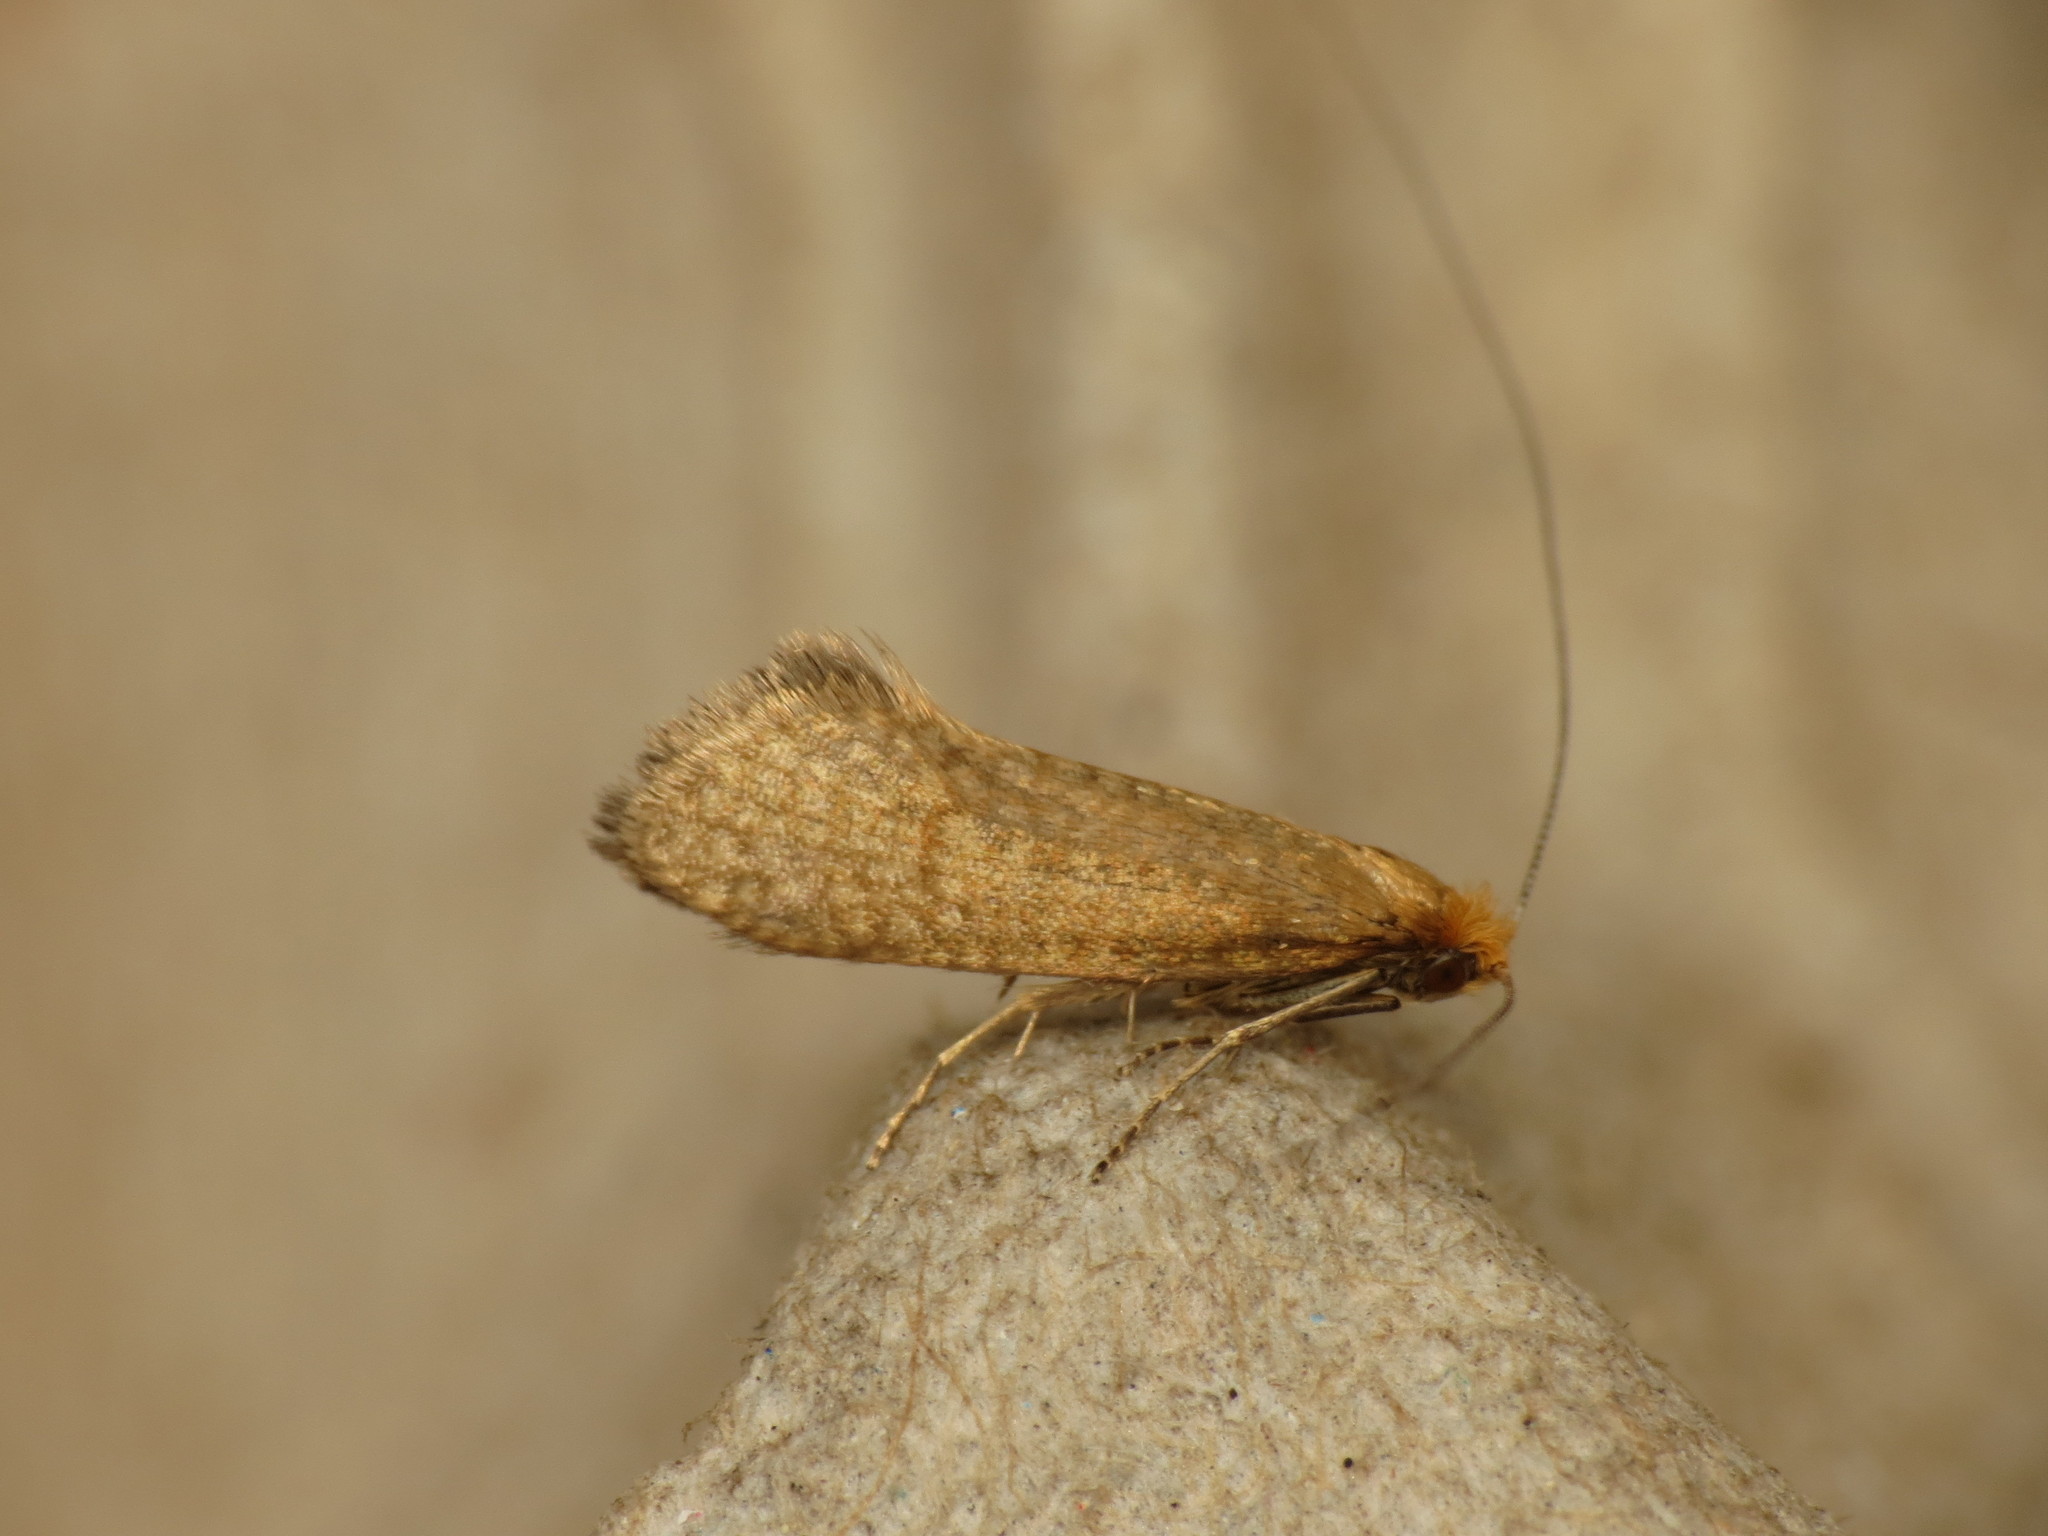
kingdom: Animalia
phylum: Arthropoda
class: Insecta
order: Lepidoptera
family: Adelidae
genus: Nematopogon
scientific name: Nematopogon adansoniella
